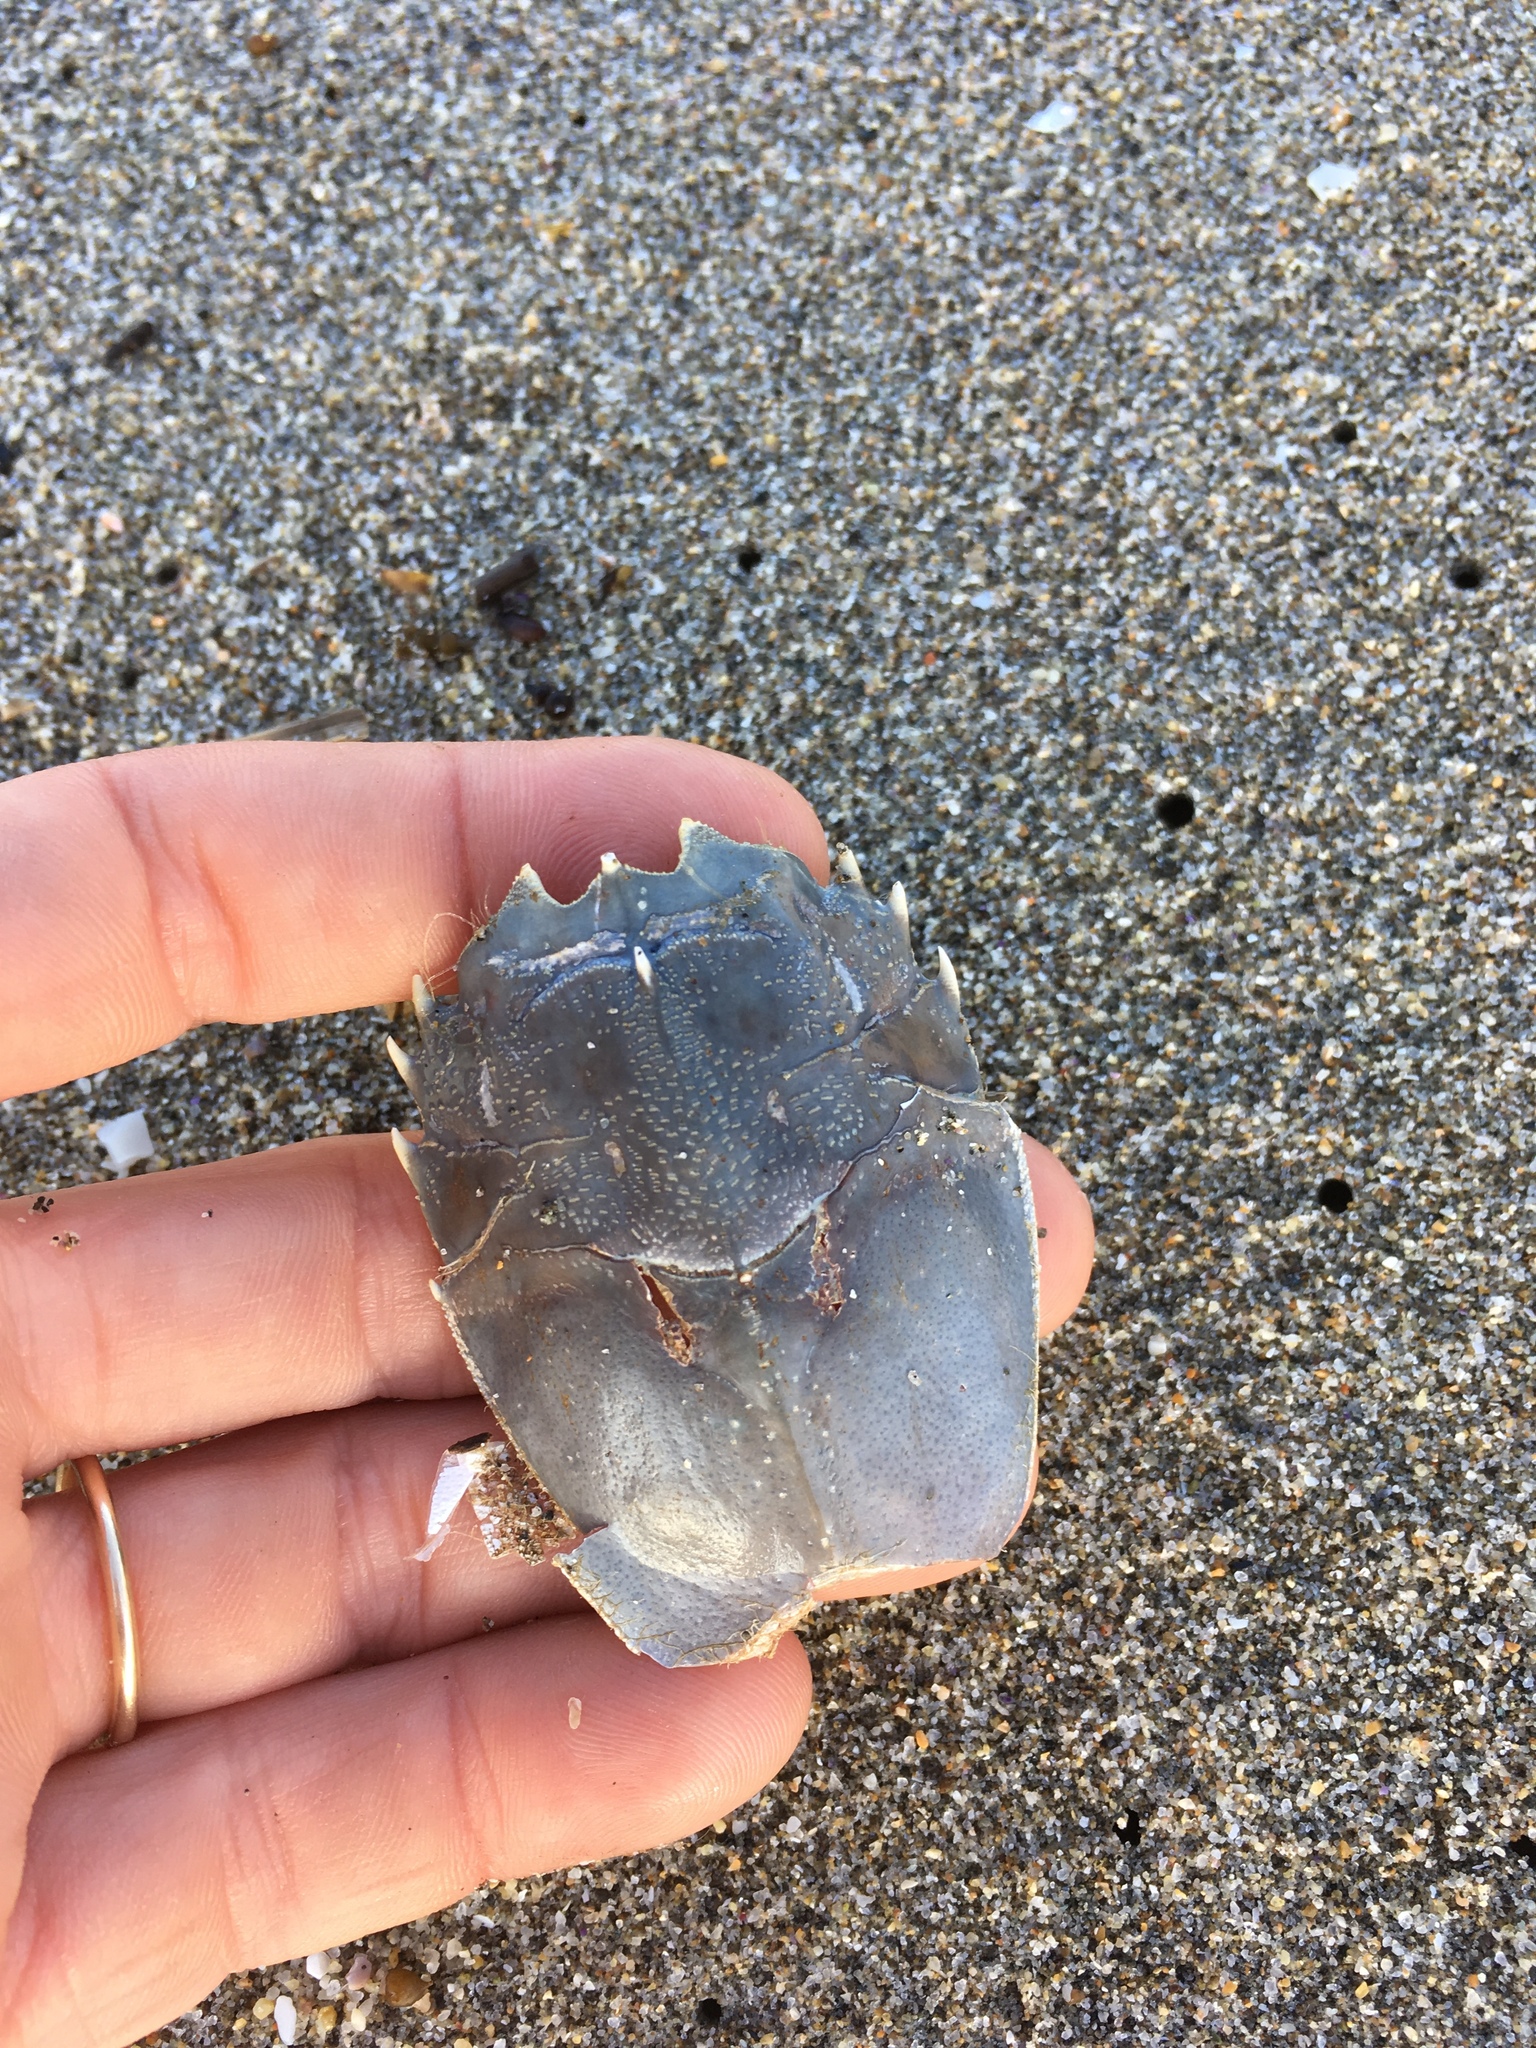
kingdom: Animalia
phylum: Arthropoda
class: Malacostraca
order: Decapoda
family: Blepharipodidae
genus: Blepharipoda
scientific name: Blepharipoda occidentalis
